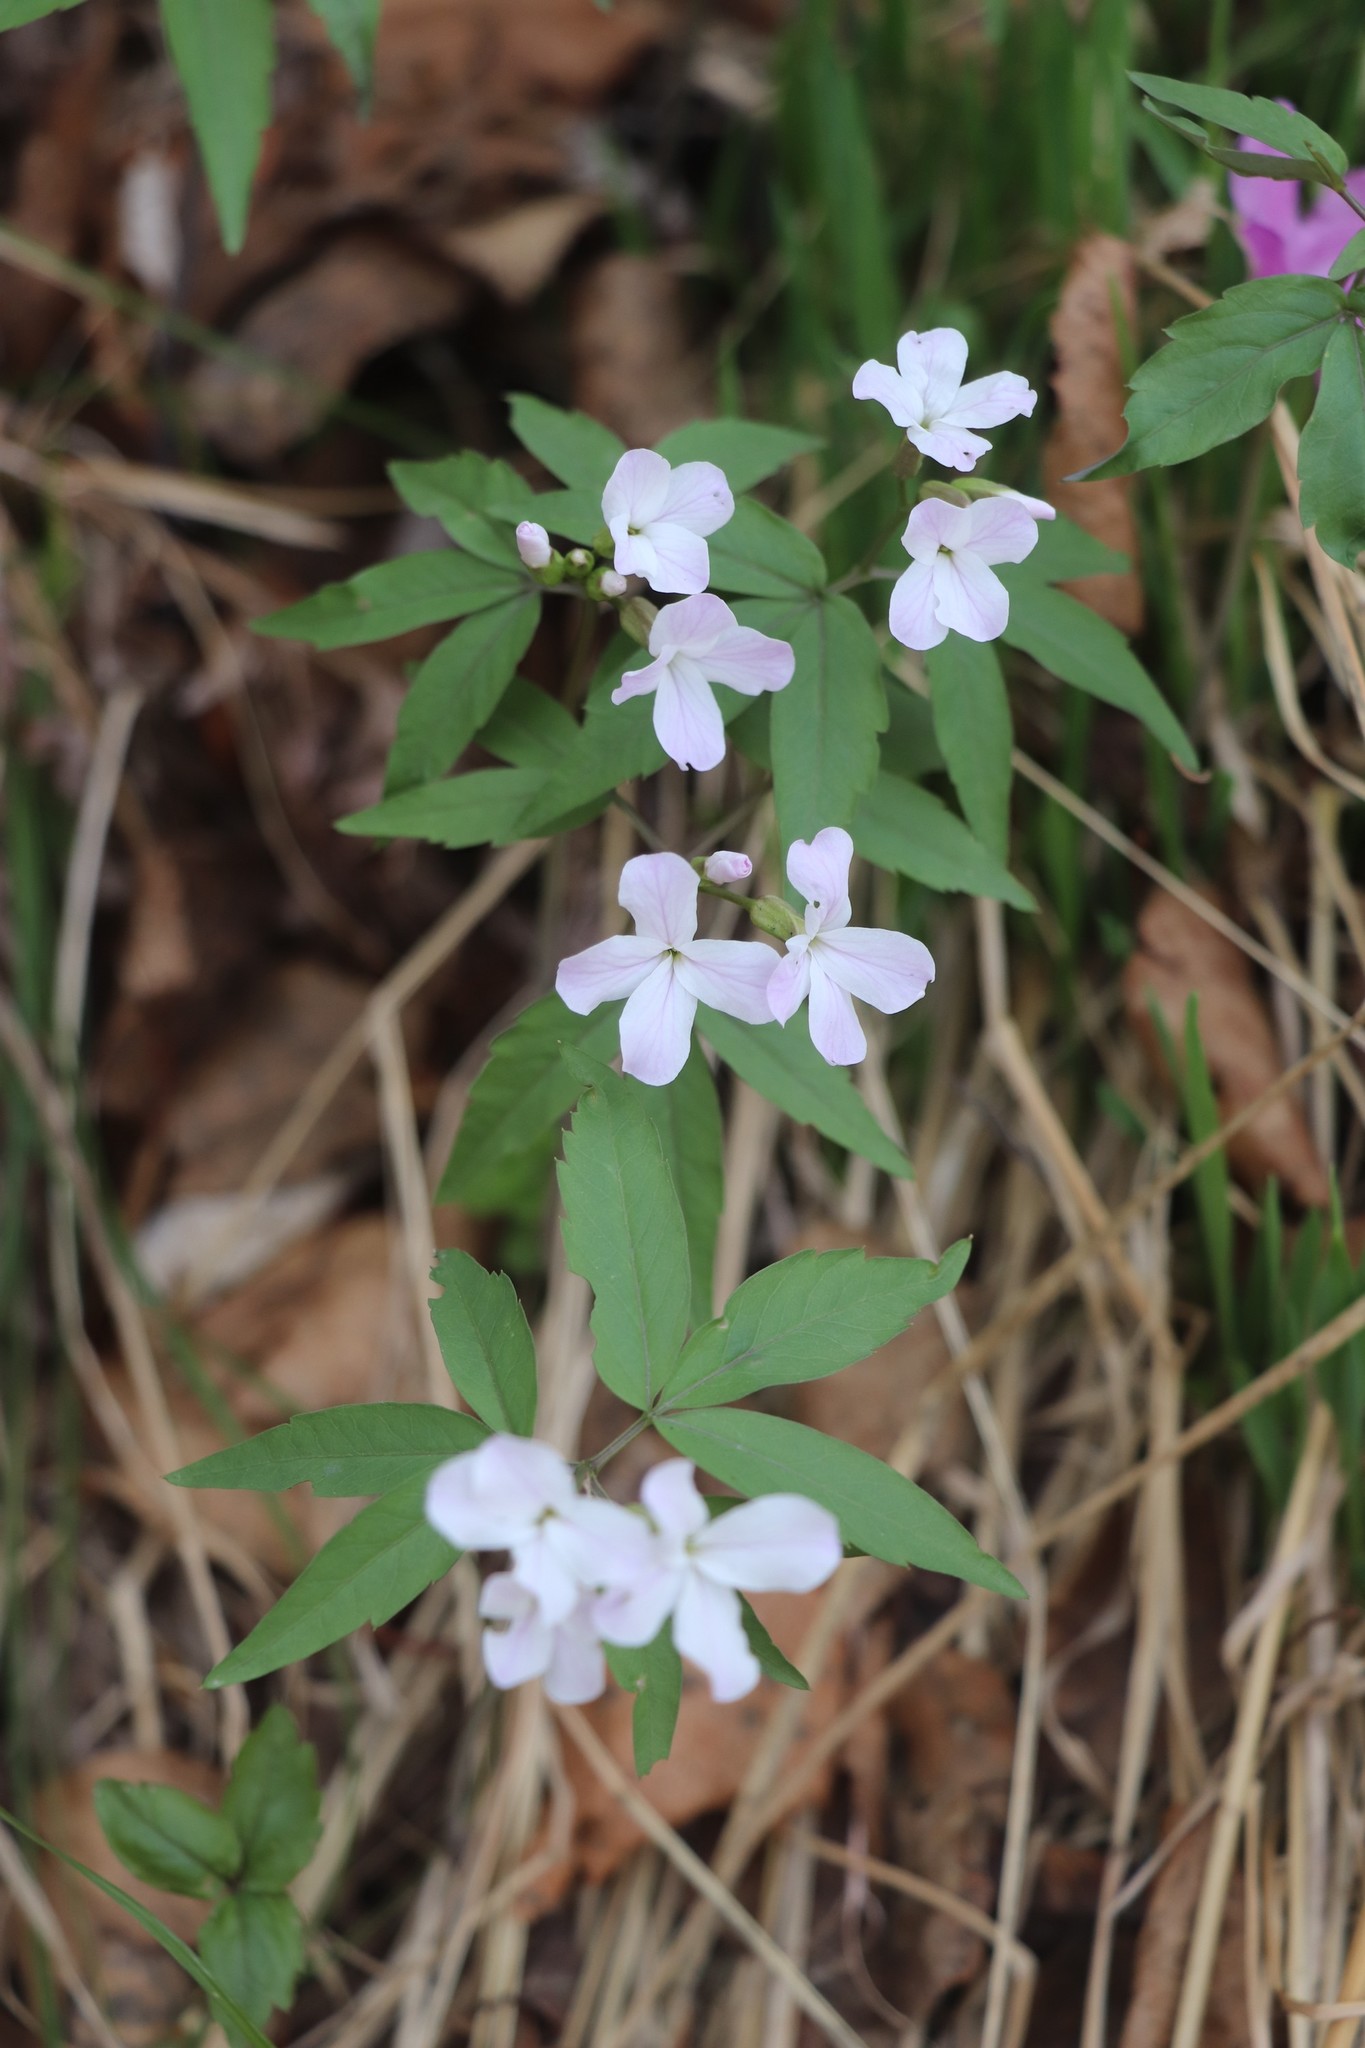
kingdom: Plantae
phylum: Tracheophyta
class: Magnoliopsida
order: Brassicales
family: Brassicaceae
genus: Cardamine
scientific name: Cardamine altaica
